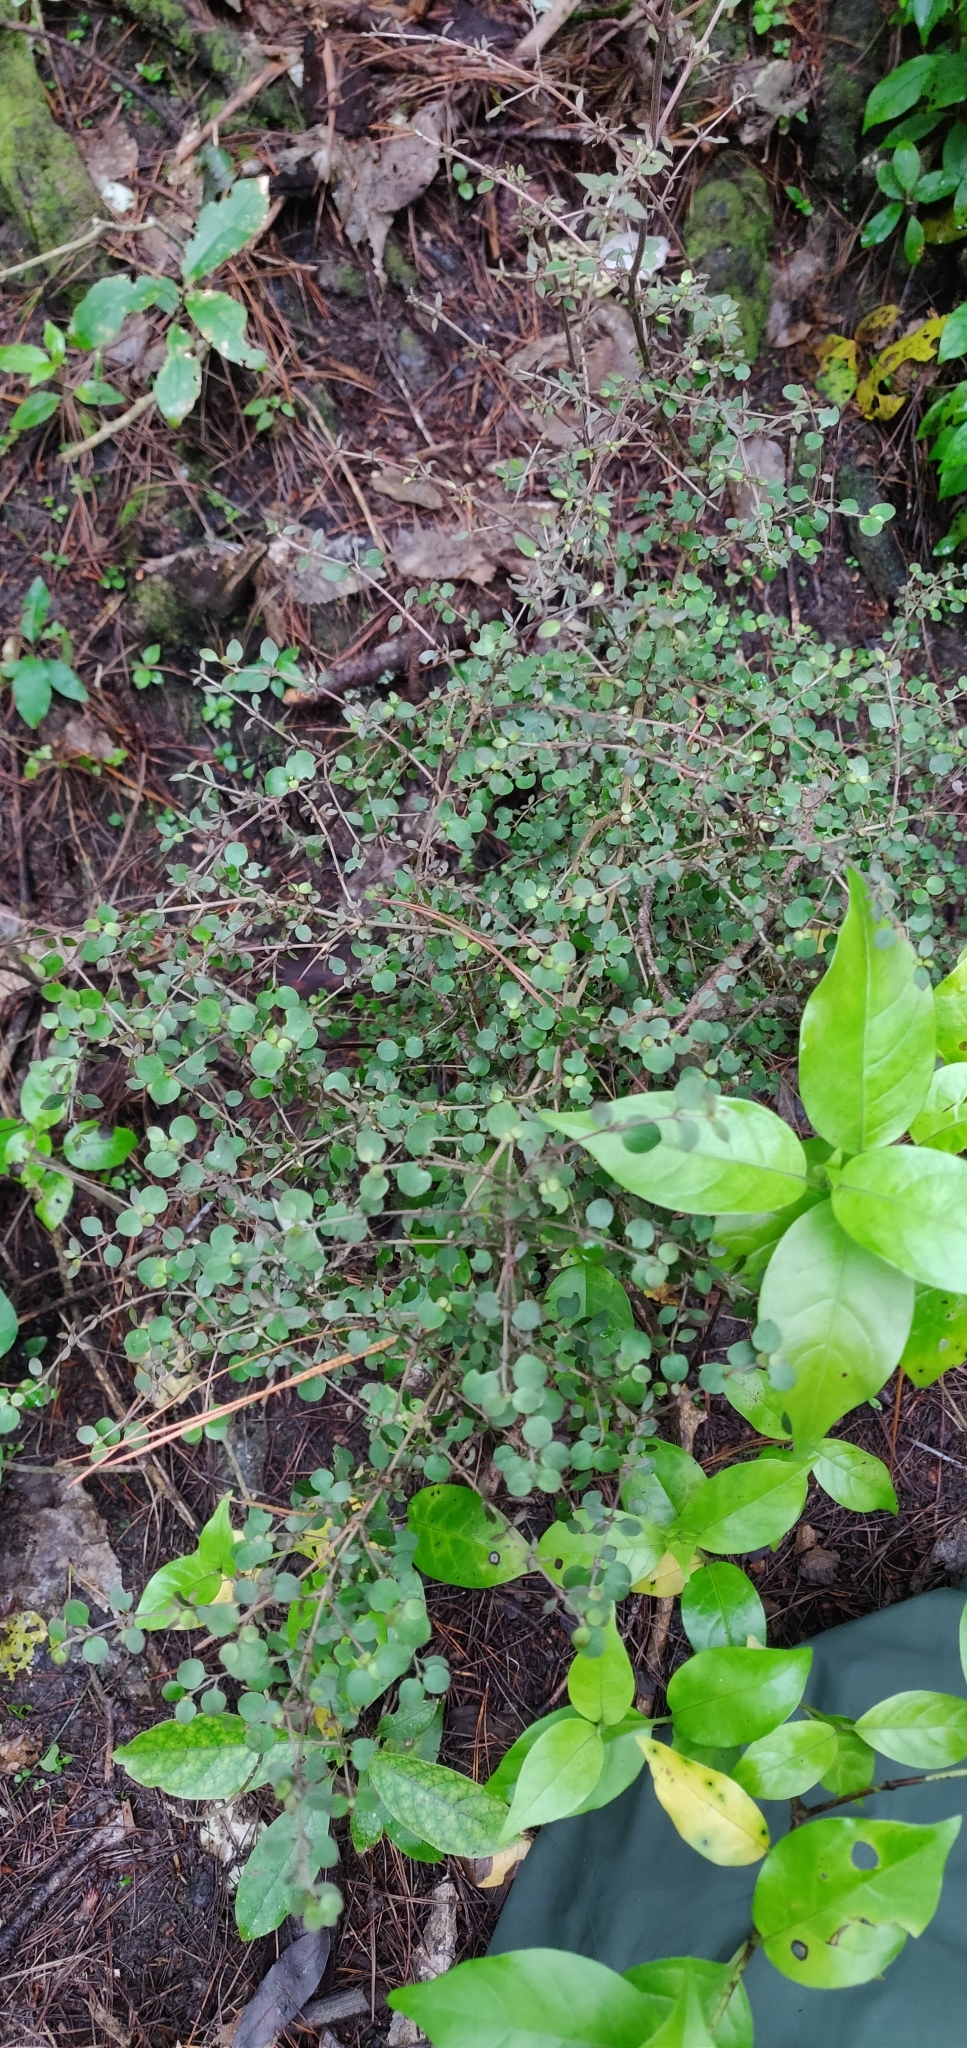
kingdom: Plantae
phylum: Tracheophyta
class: Magnoliopsida
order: Gentianales
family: Rubiaceae
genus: Coprosma
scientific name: Coprosma rhamnoides
